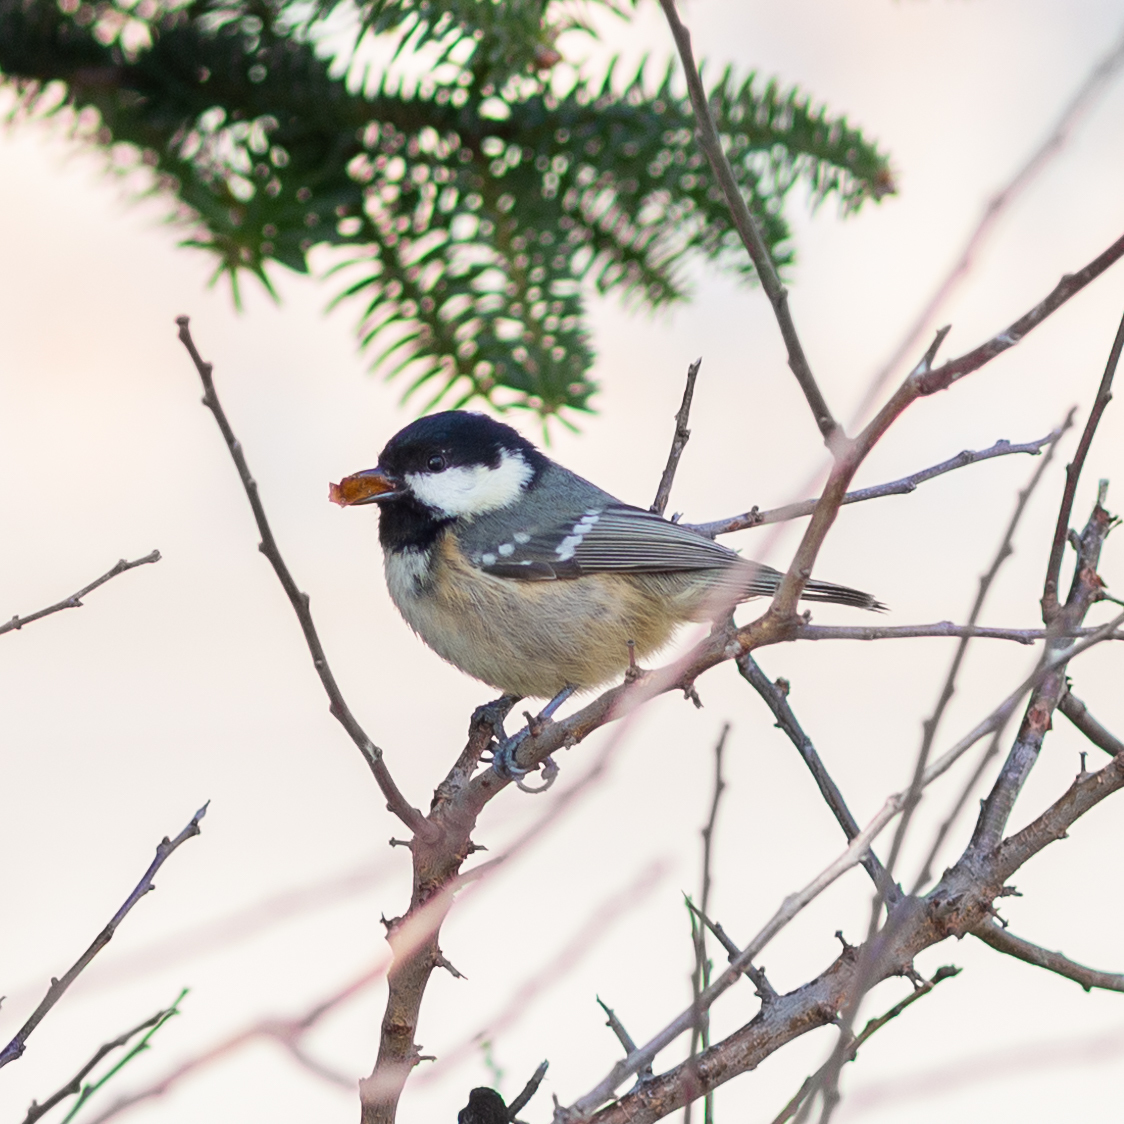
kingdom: Animalia
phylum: Chordata
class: Aves
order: Passeriformes
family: Paridae
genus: Periparus
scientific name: Periparus ater
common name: Coal tit
